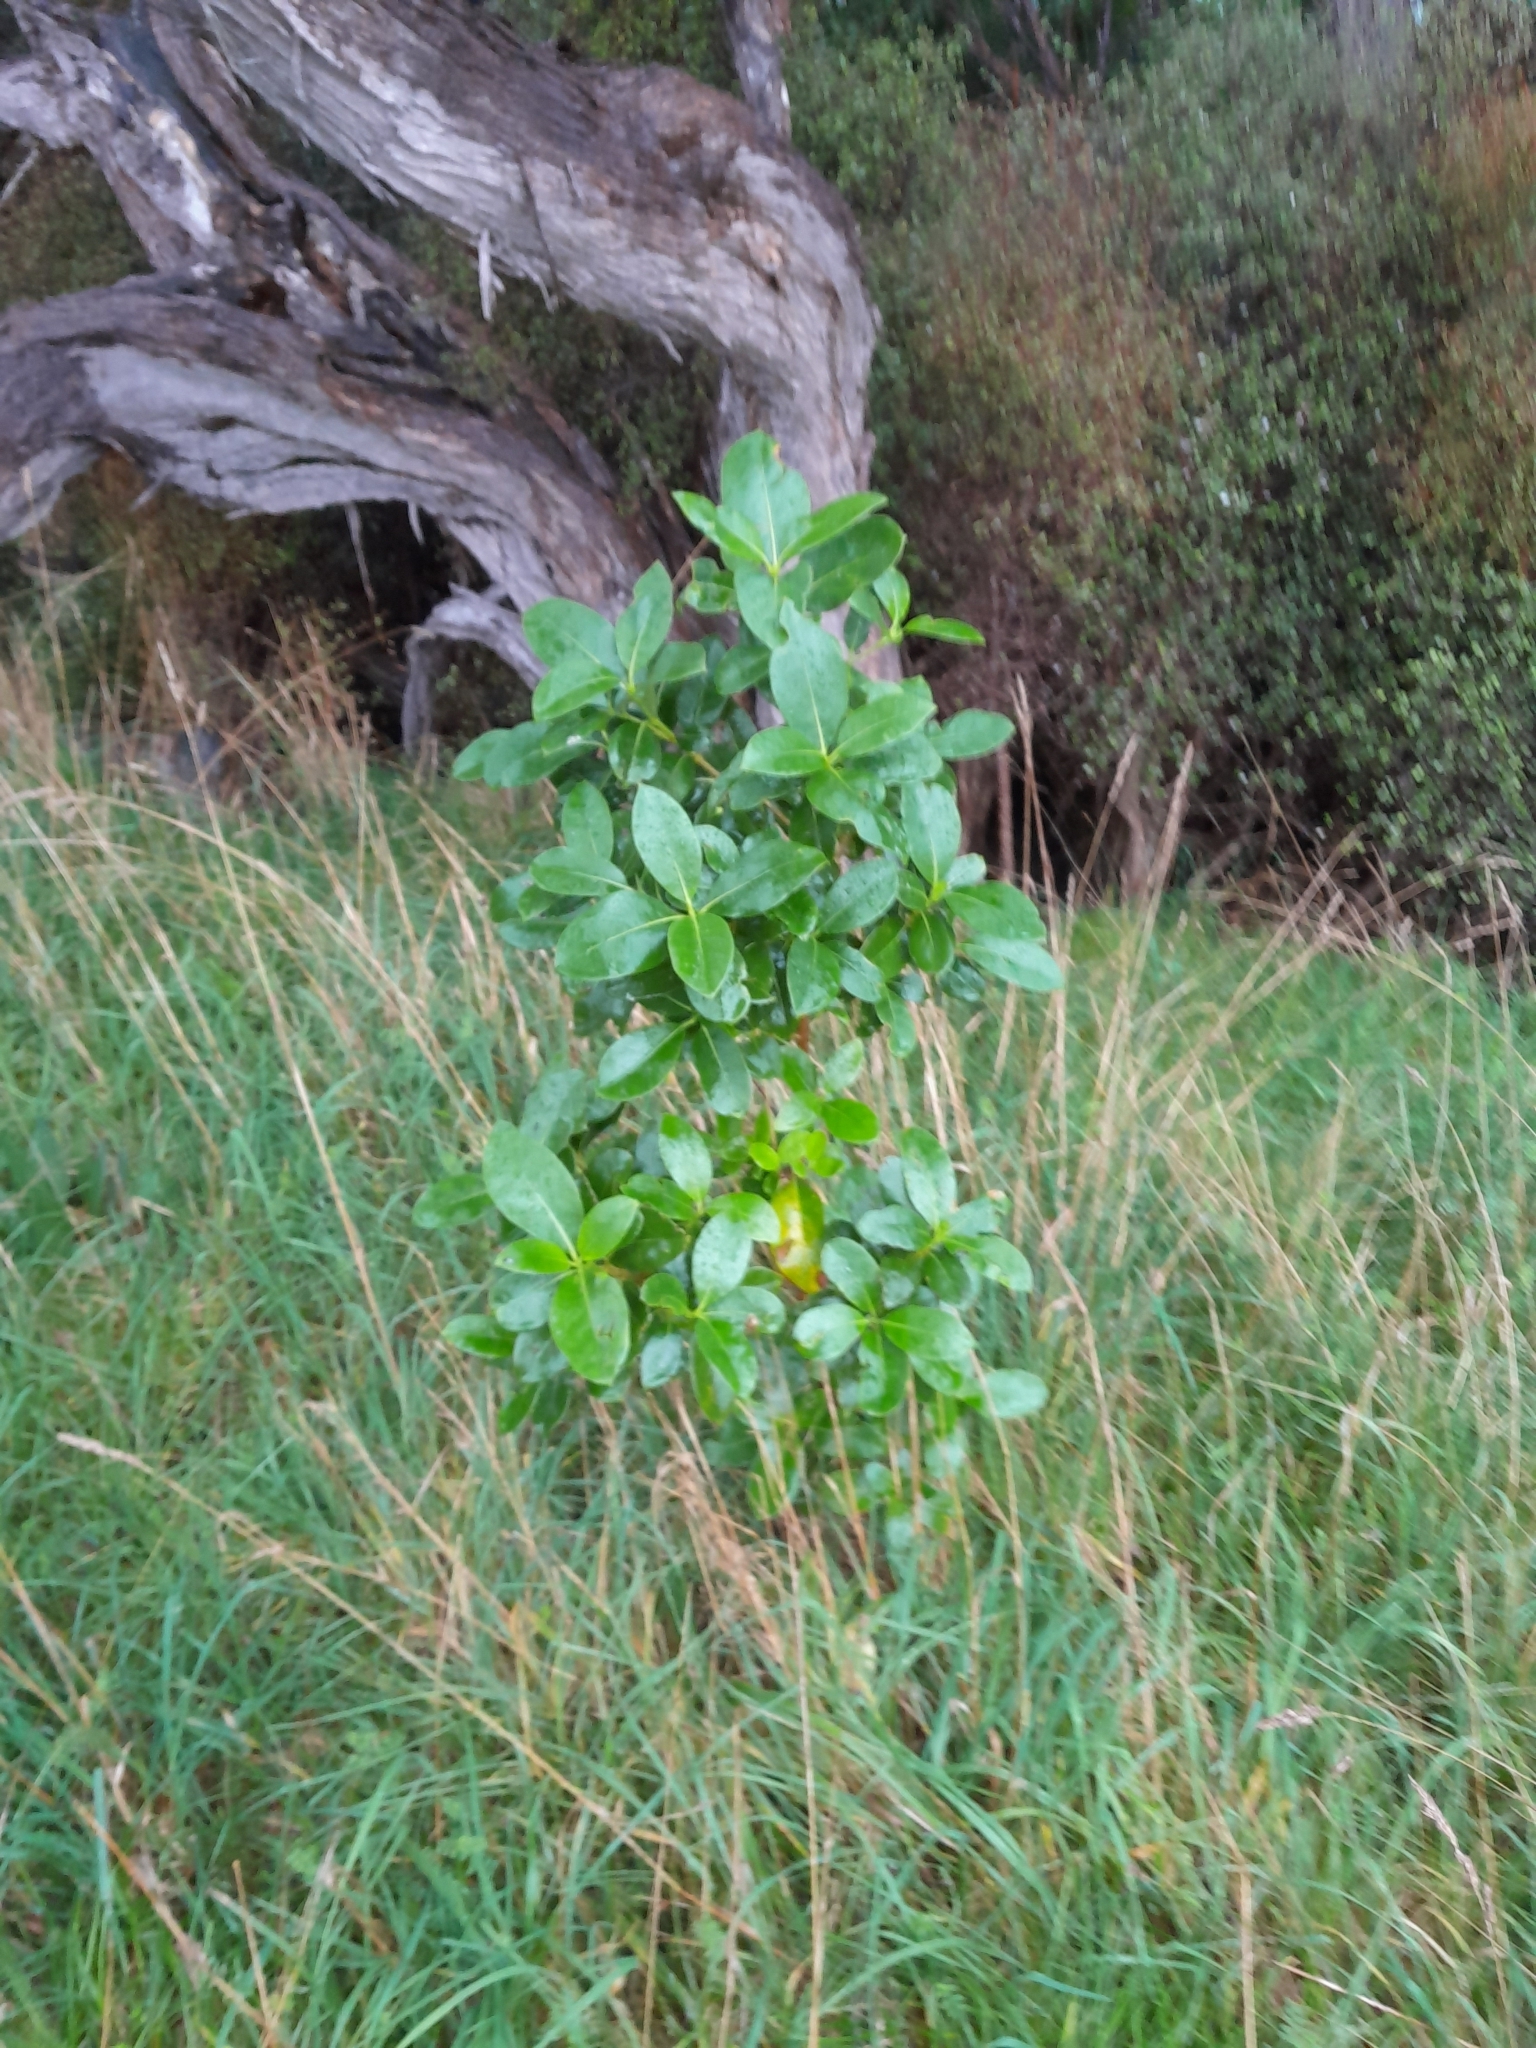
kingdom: Plantae
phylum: Tracheophyta
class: Magnoliopsida
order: Gentianales
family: Rubiaceae
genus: Coprosma
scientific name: Coprosma lucida
